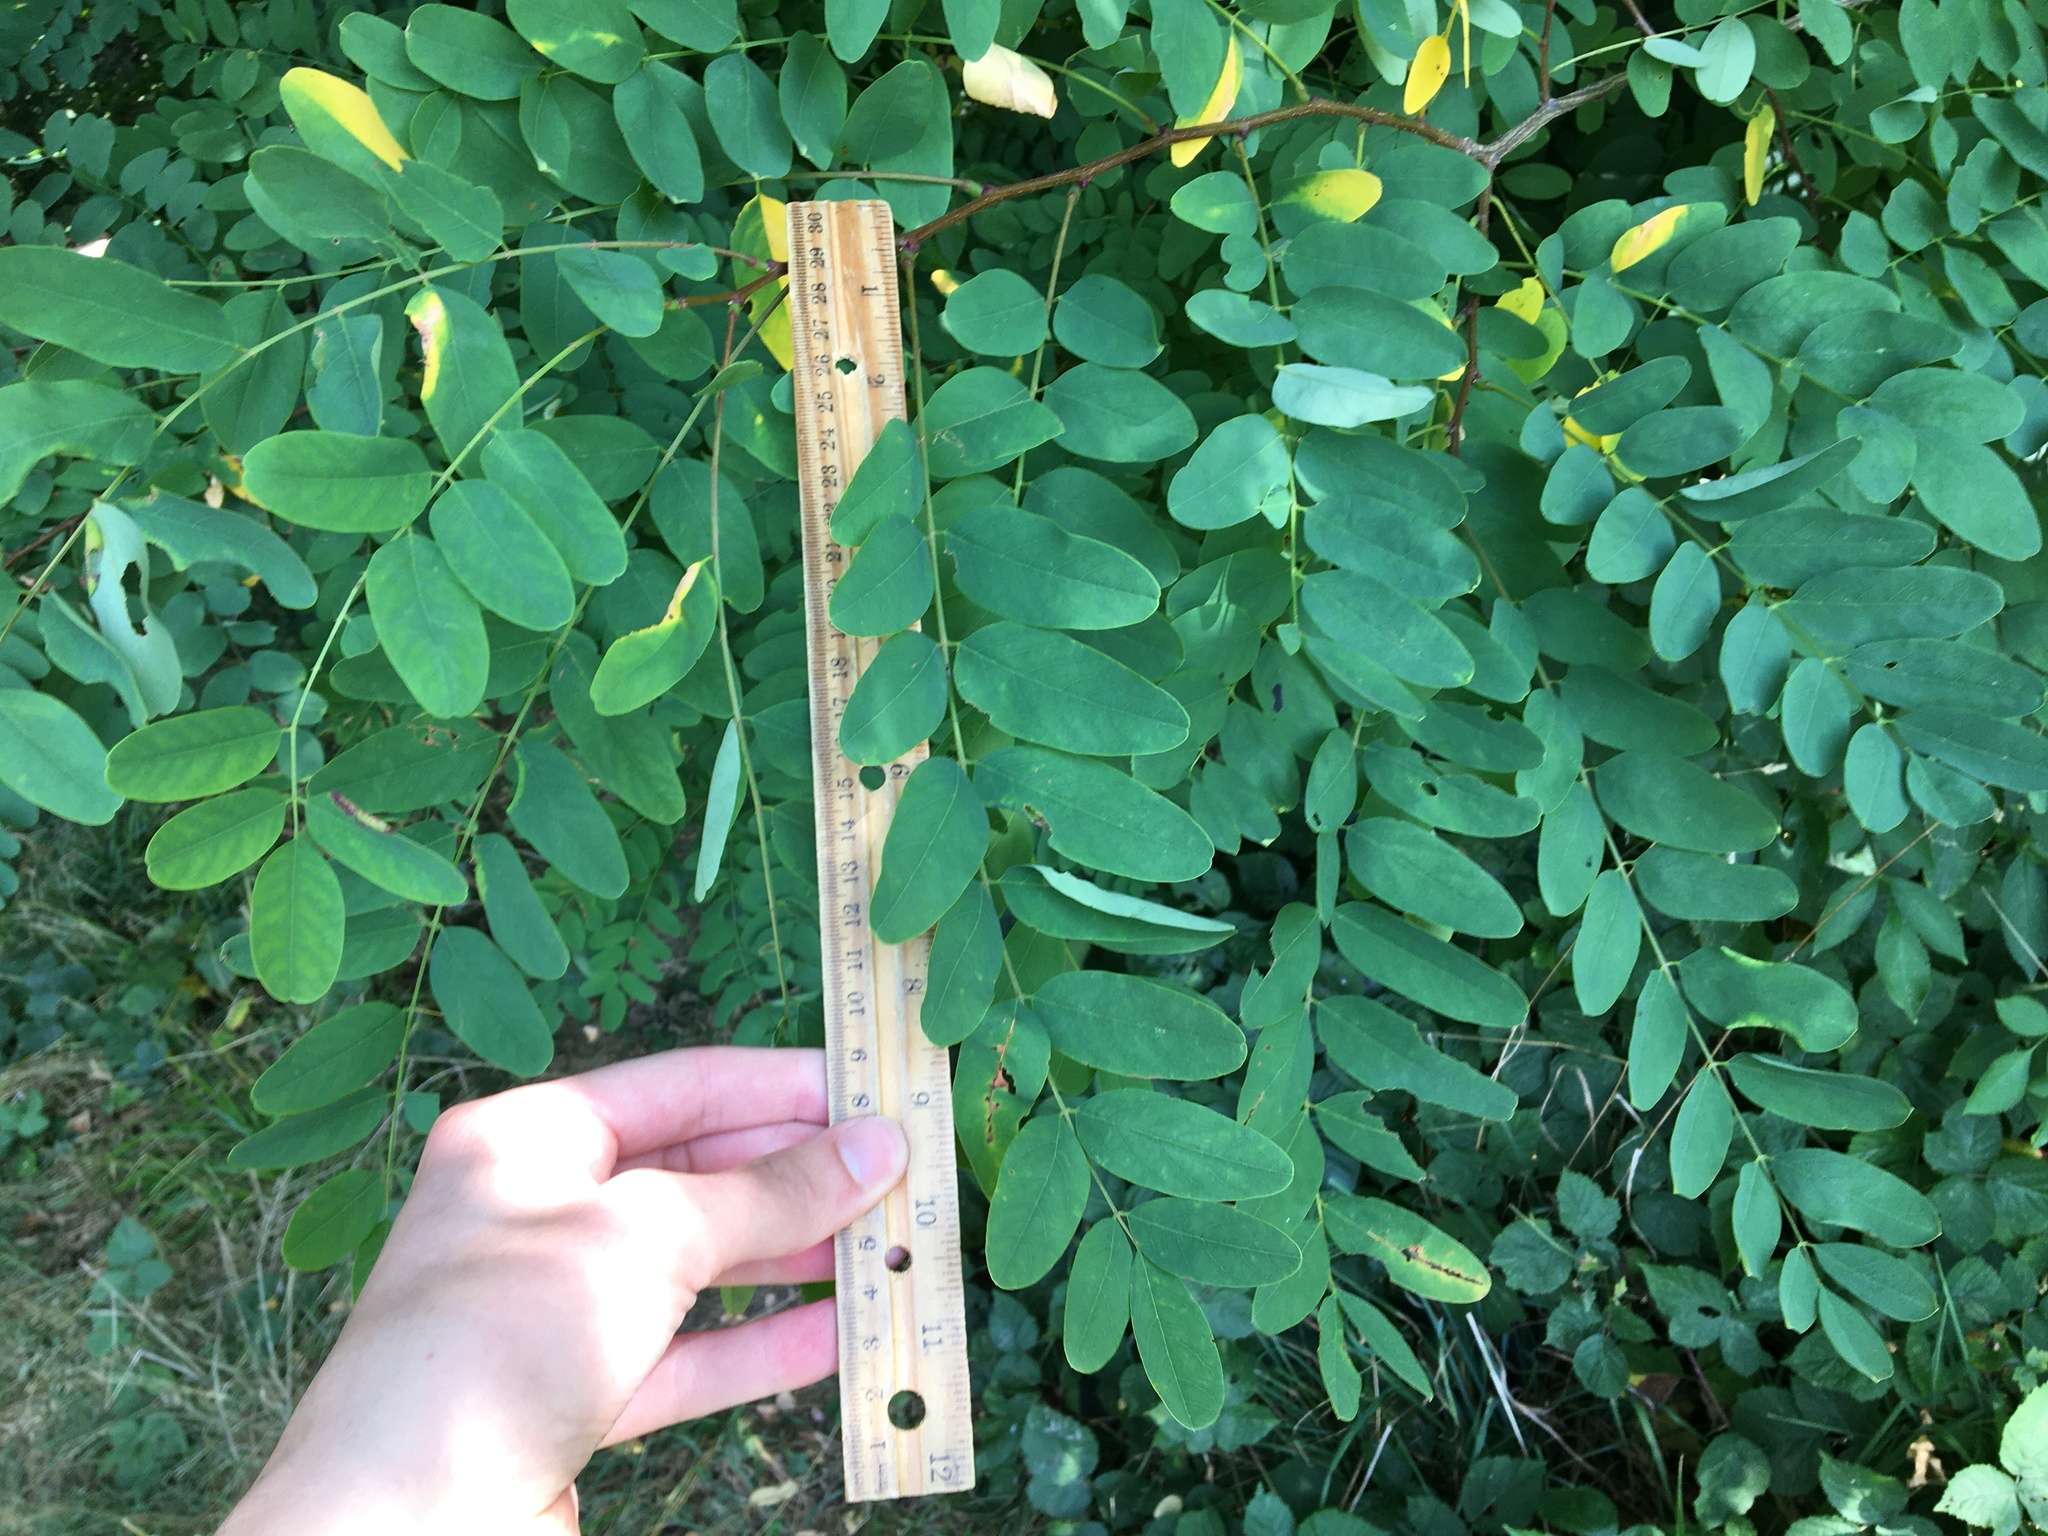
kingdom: Plantae
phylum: Tracheophyta
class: Magnoliopsida
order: Fabales
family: Fabaceae
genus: Robinia
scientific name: Robinia pseudoacacia
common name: Black locust
